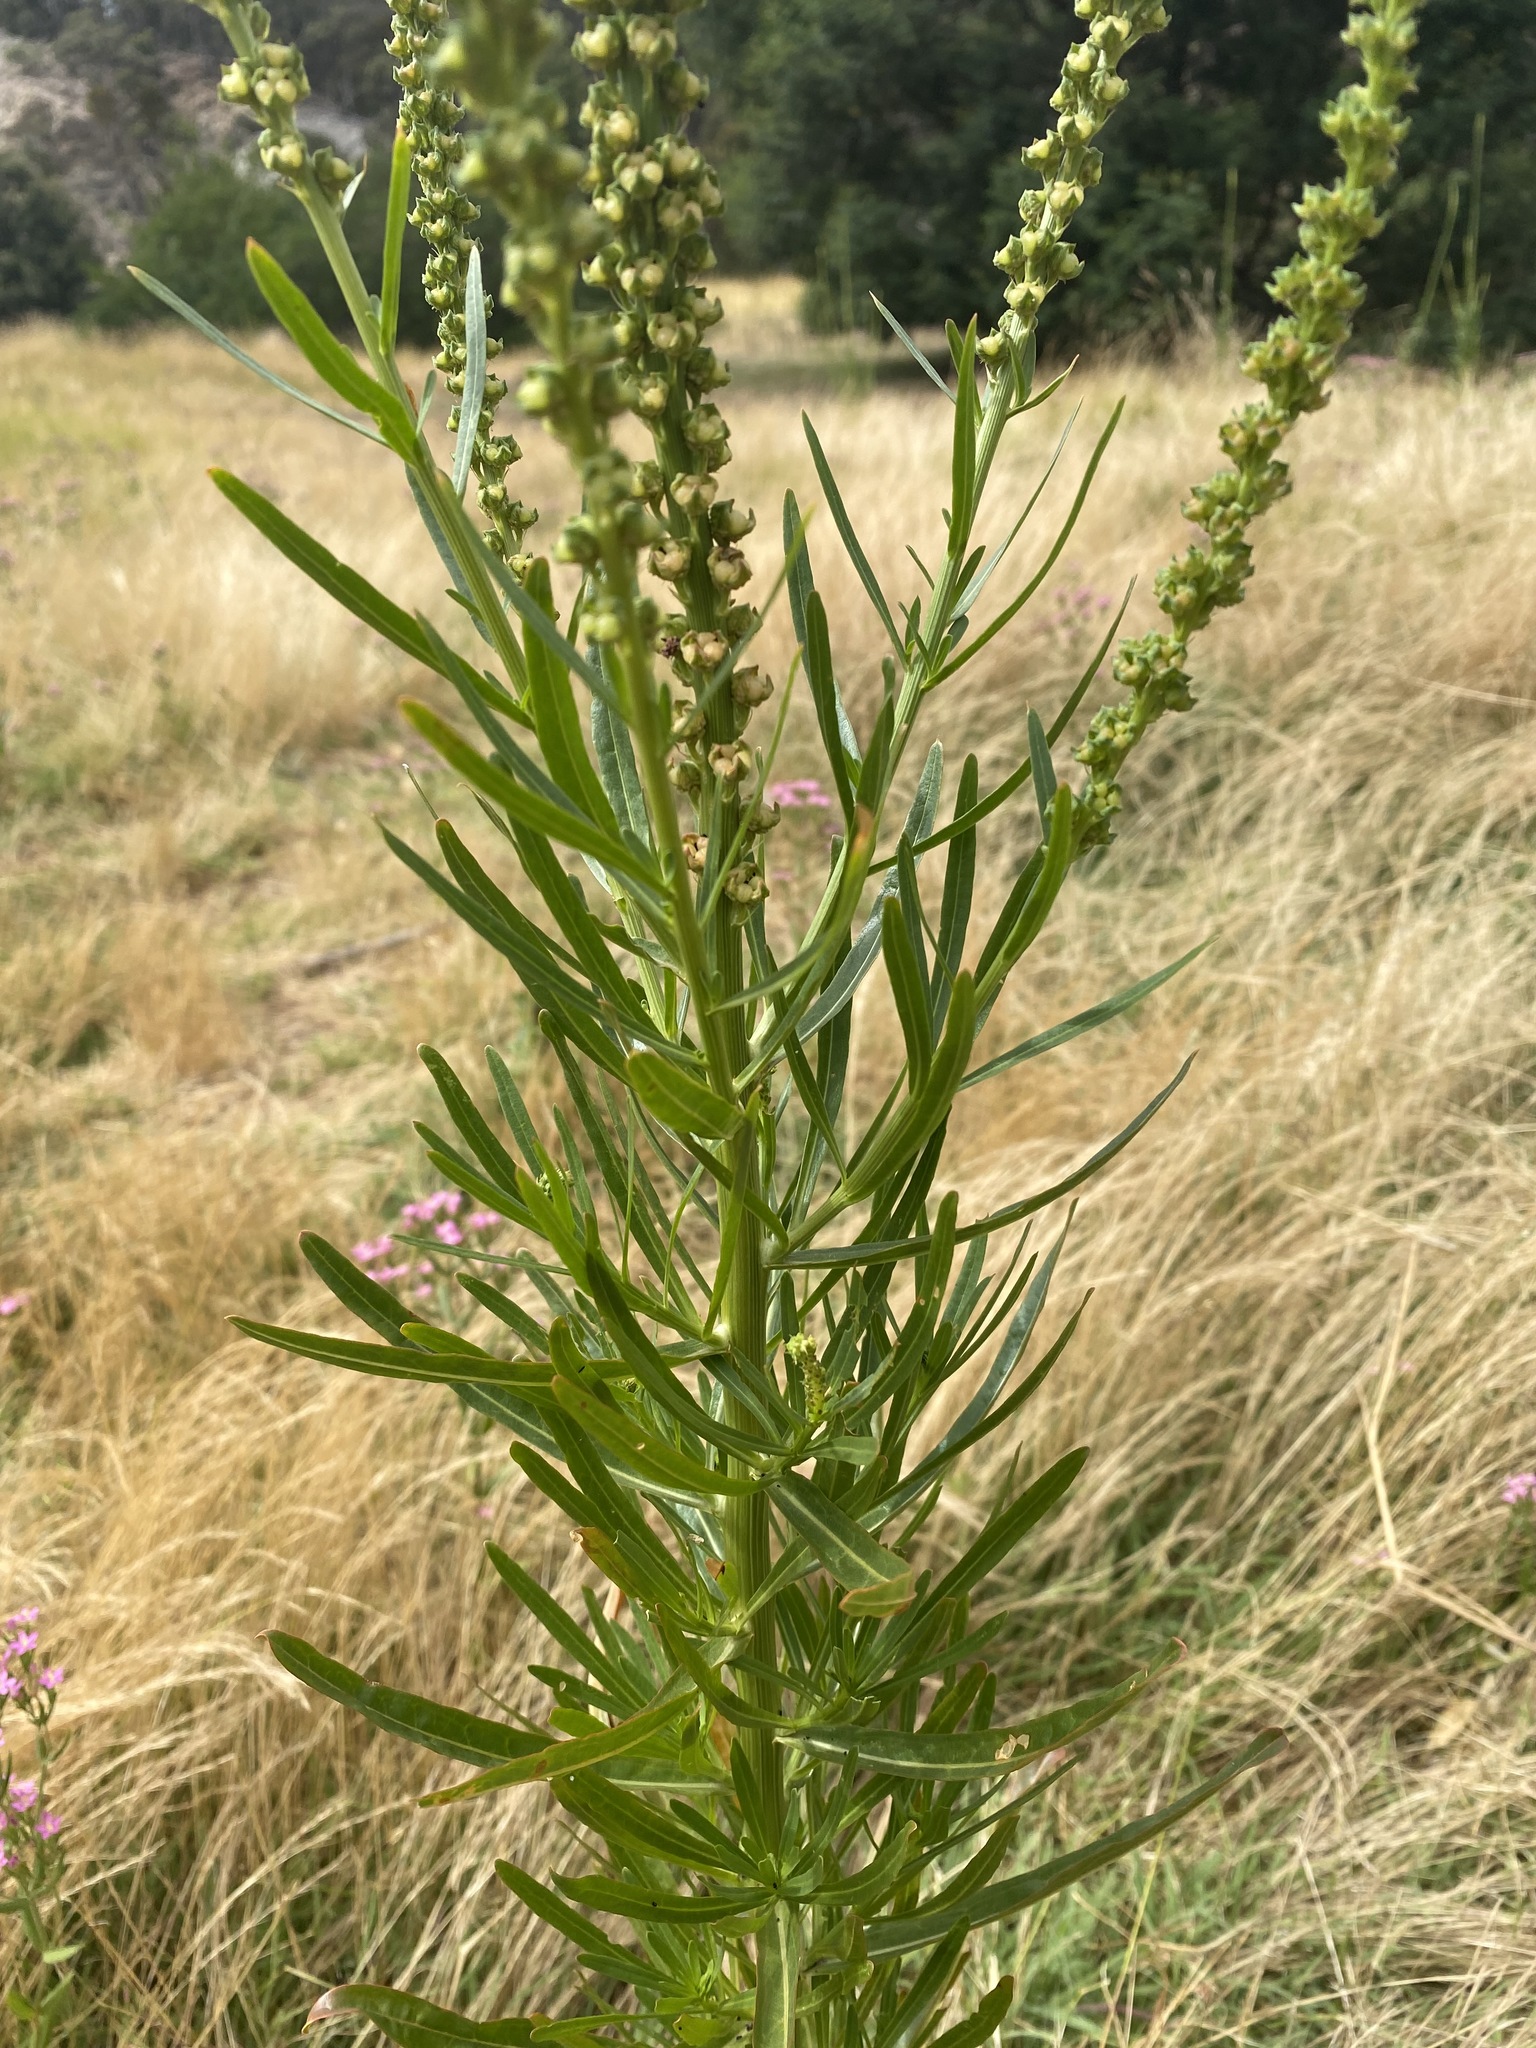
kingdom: Plantae
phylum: Tracheophyta
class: Magnoliopsida
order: Brassicales
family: Resedaceae
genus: Reseda
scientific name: Reseda luteola
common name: Weld
